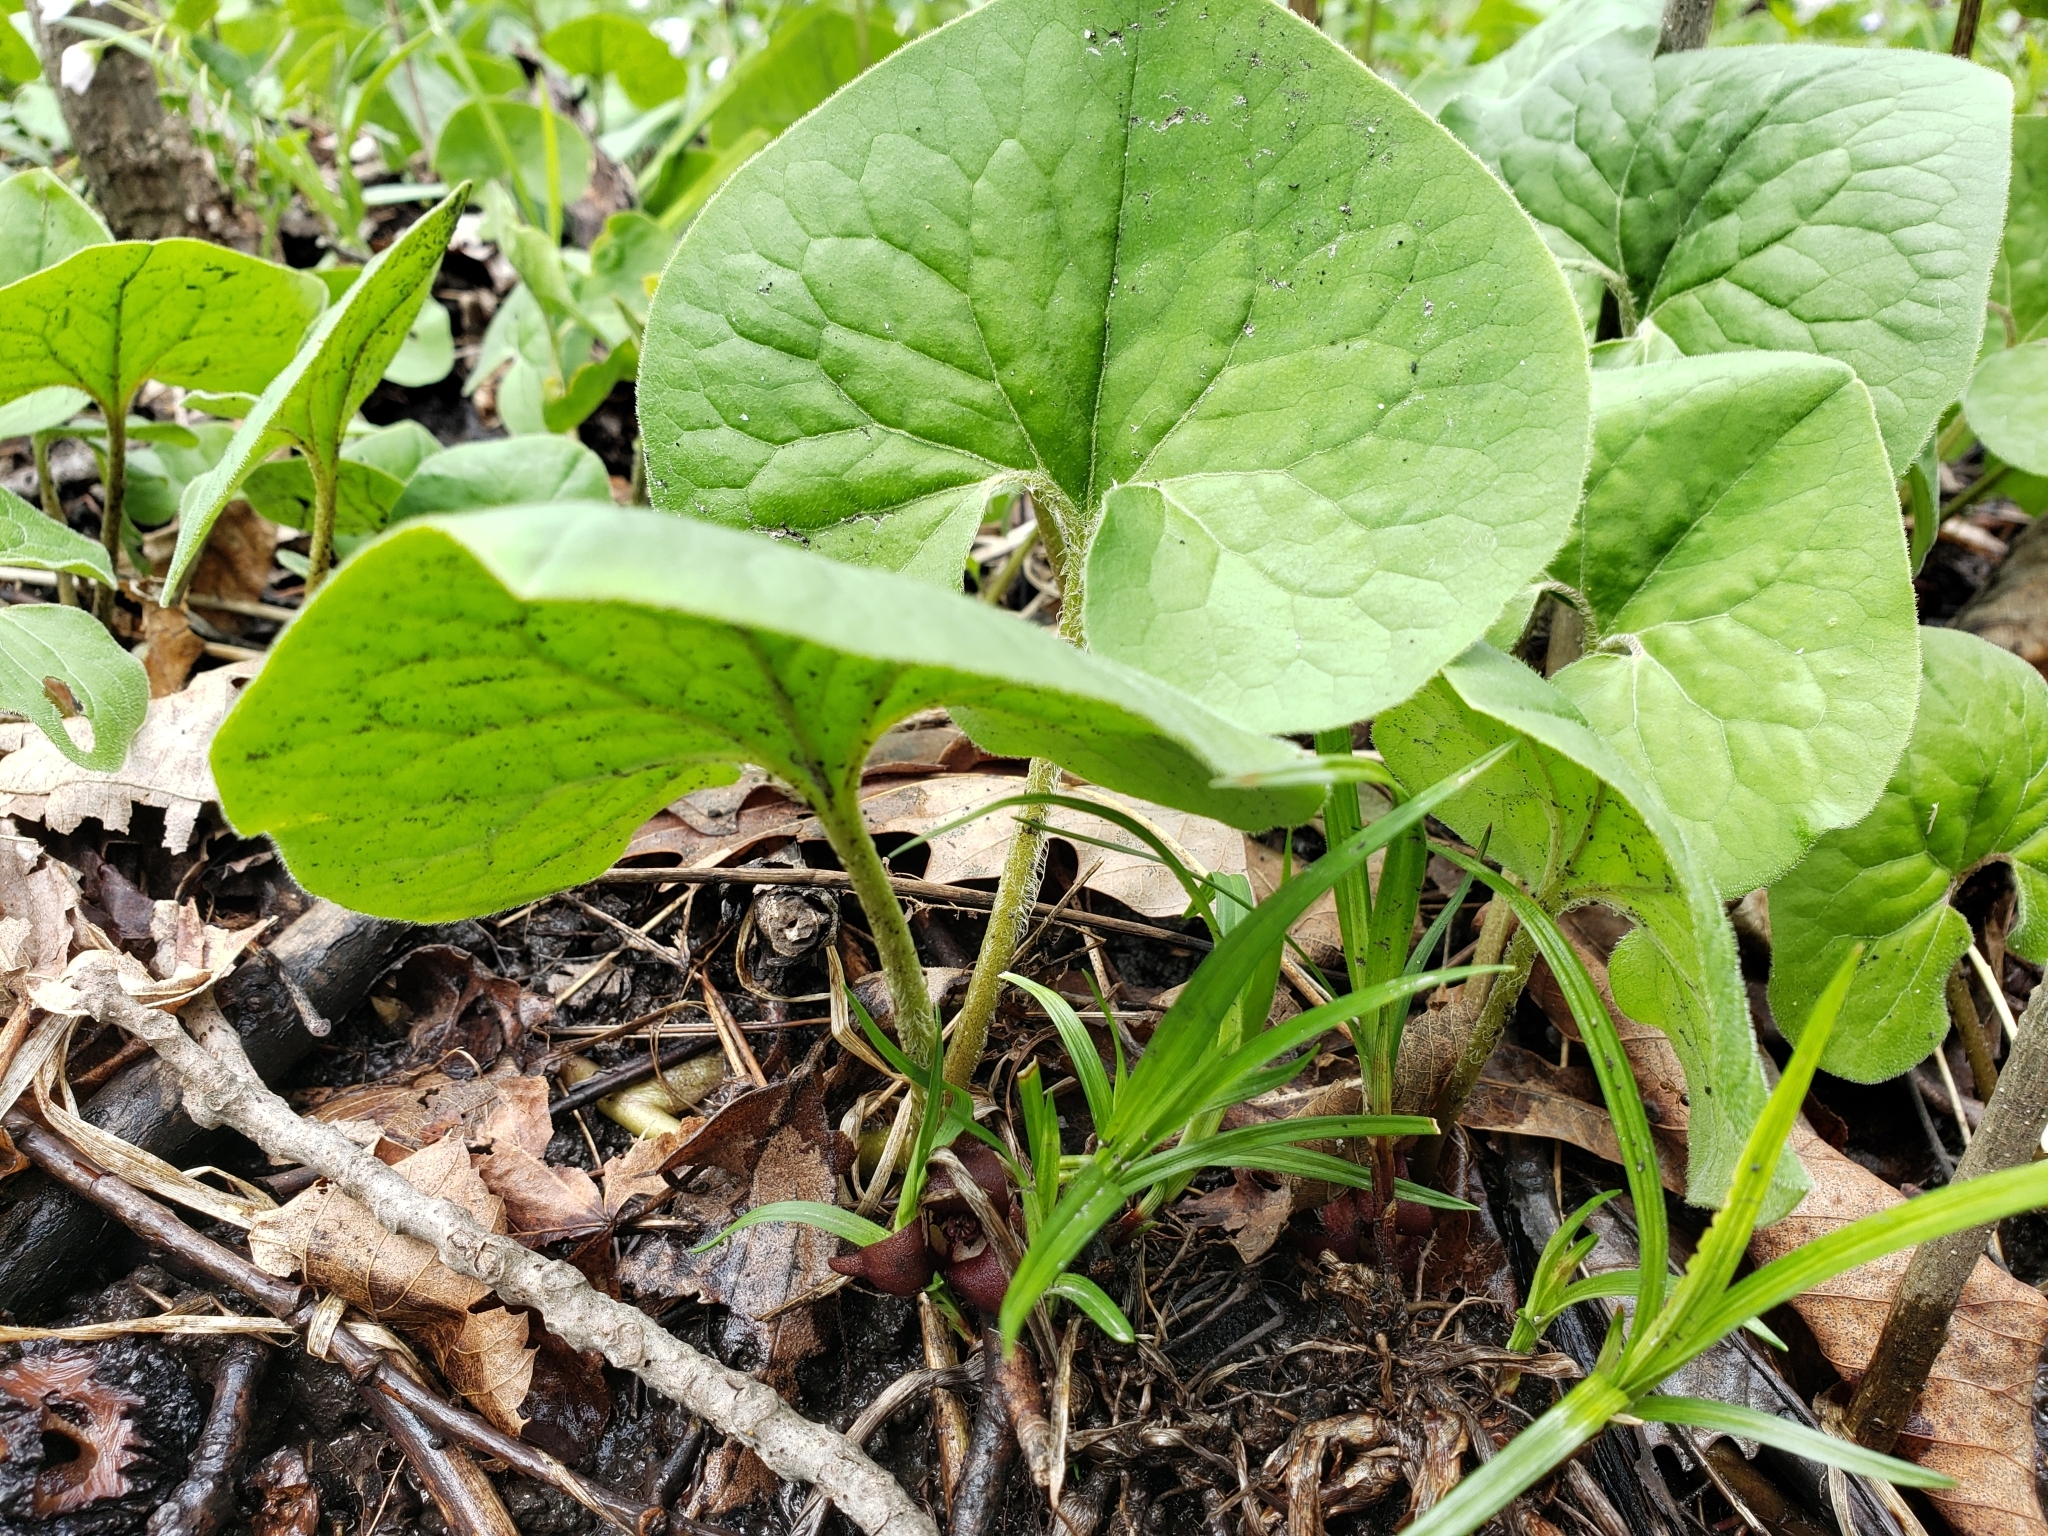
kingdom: Plantae
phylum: Tracheophyta
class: Magnoliopsida
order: Piperales
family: Aristolochiaceae
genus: Asarum
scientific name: Asarum canadense
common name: Wild ginger
